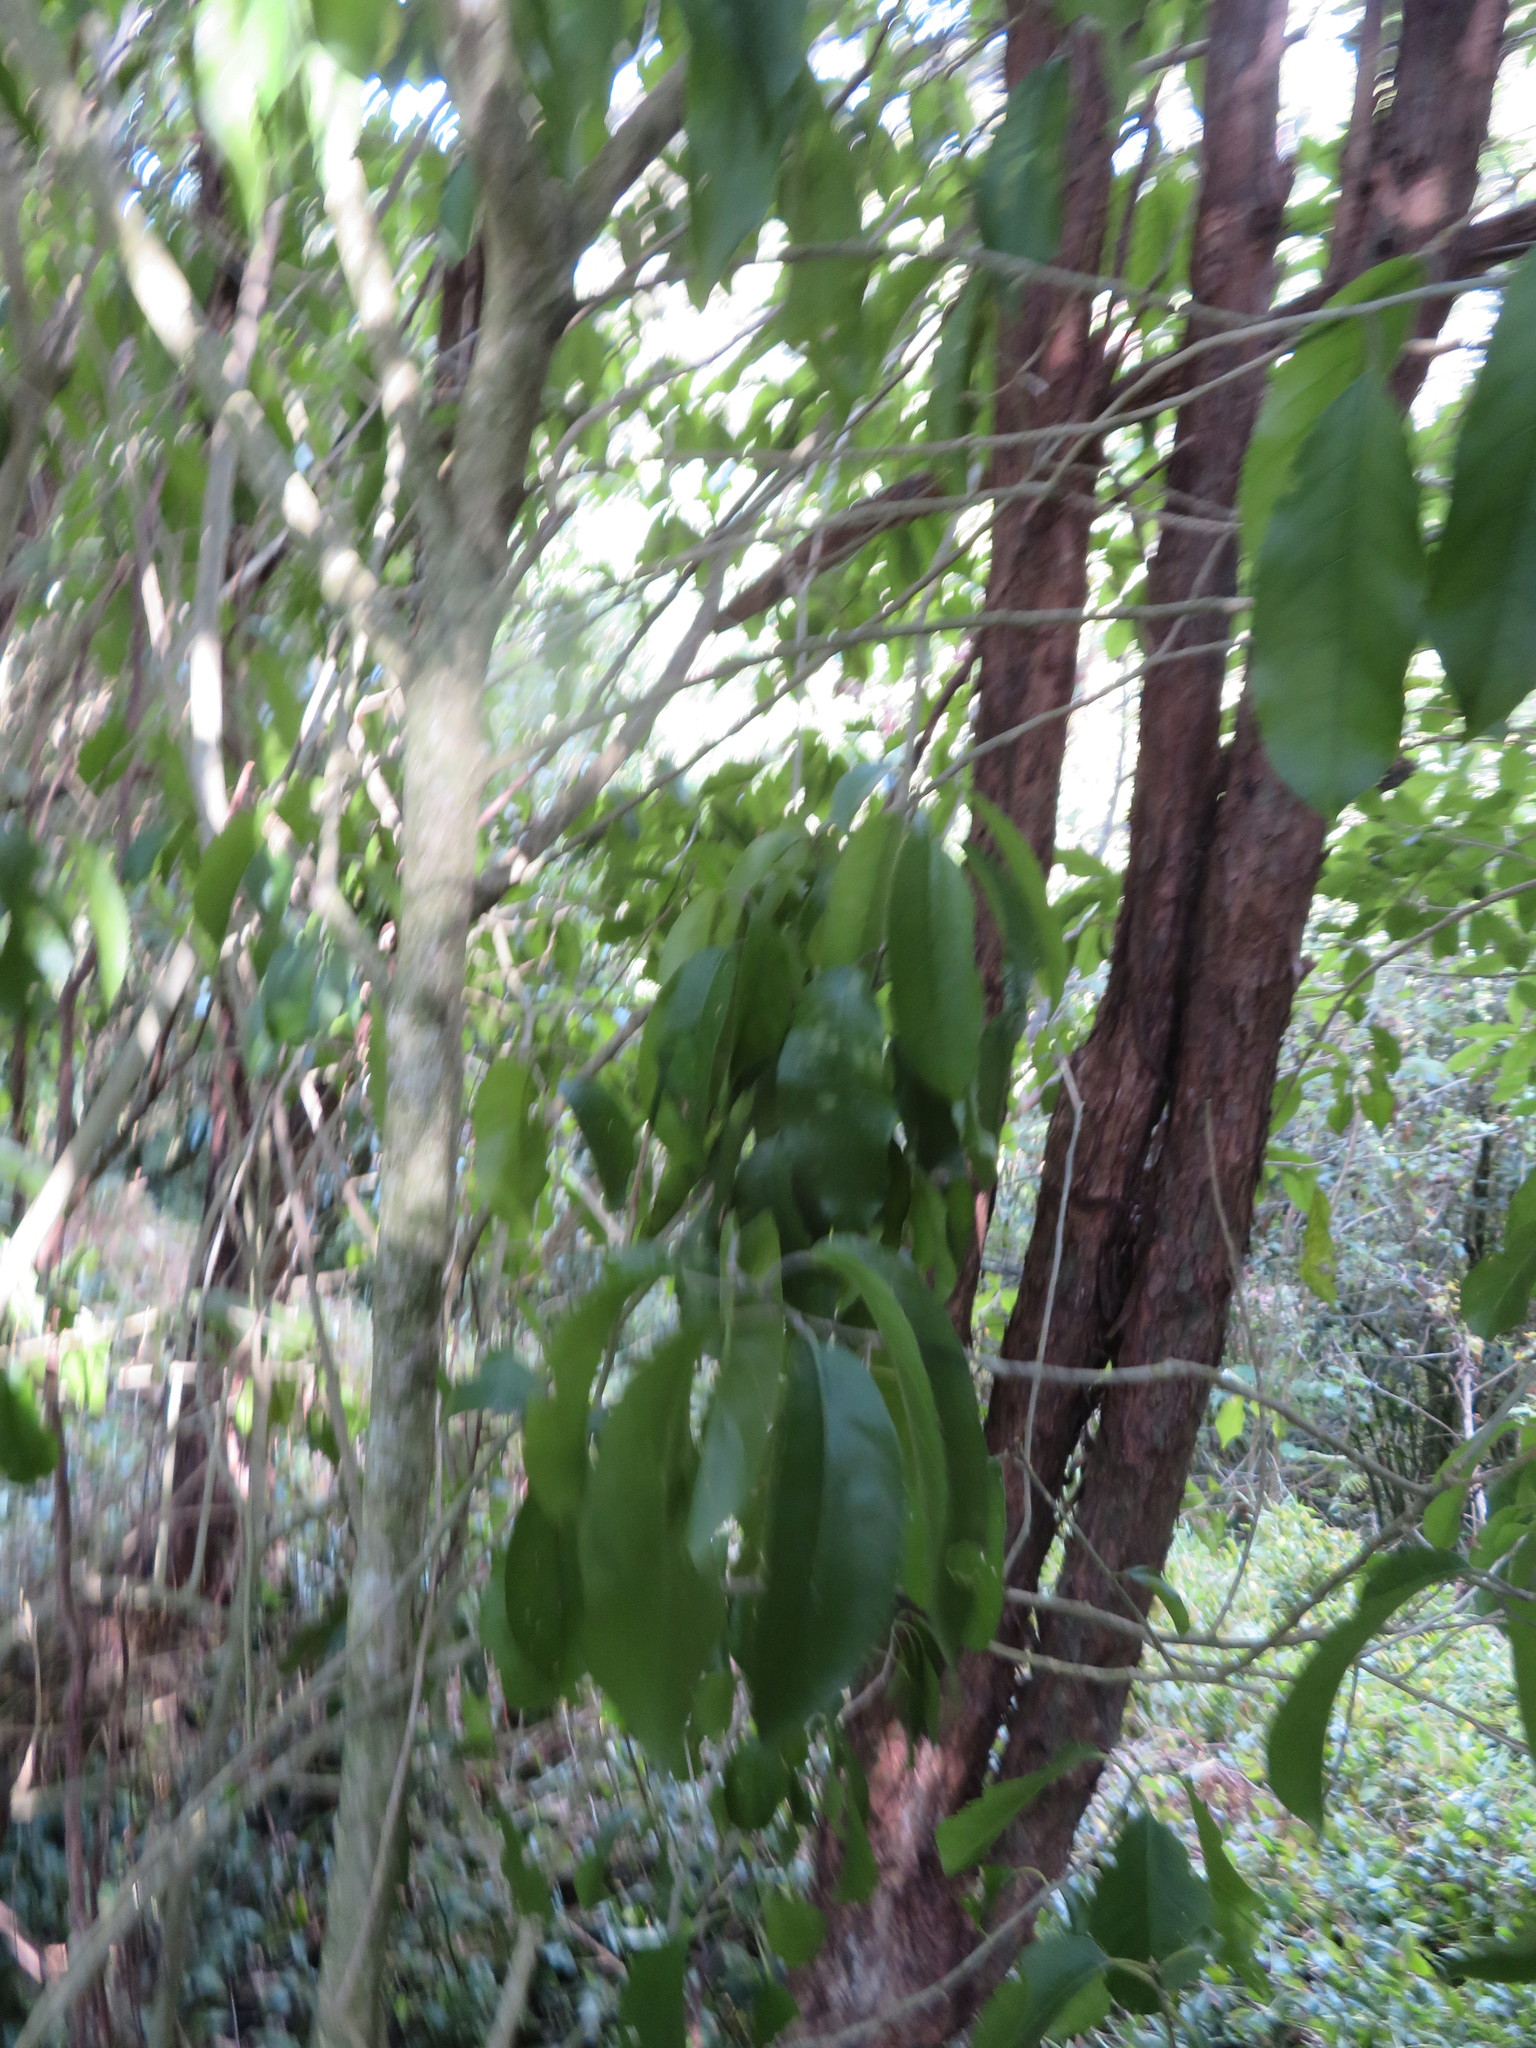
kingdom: Plantae
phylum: Tracheophyta
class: Magnoliopsida
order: Malpighiales
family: Violaceae
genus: Melicytus
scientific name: Melicytus ramiflorus
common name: Mahoe
